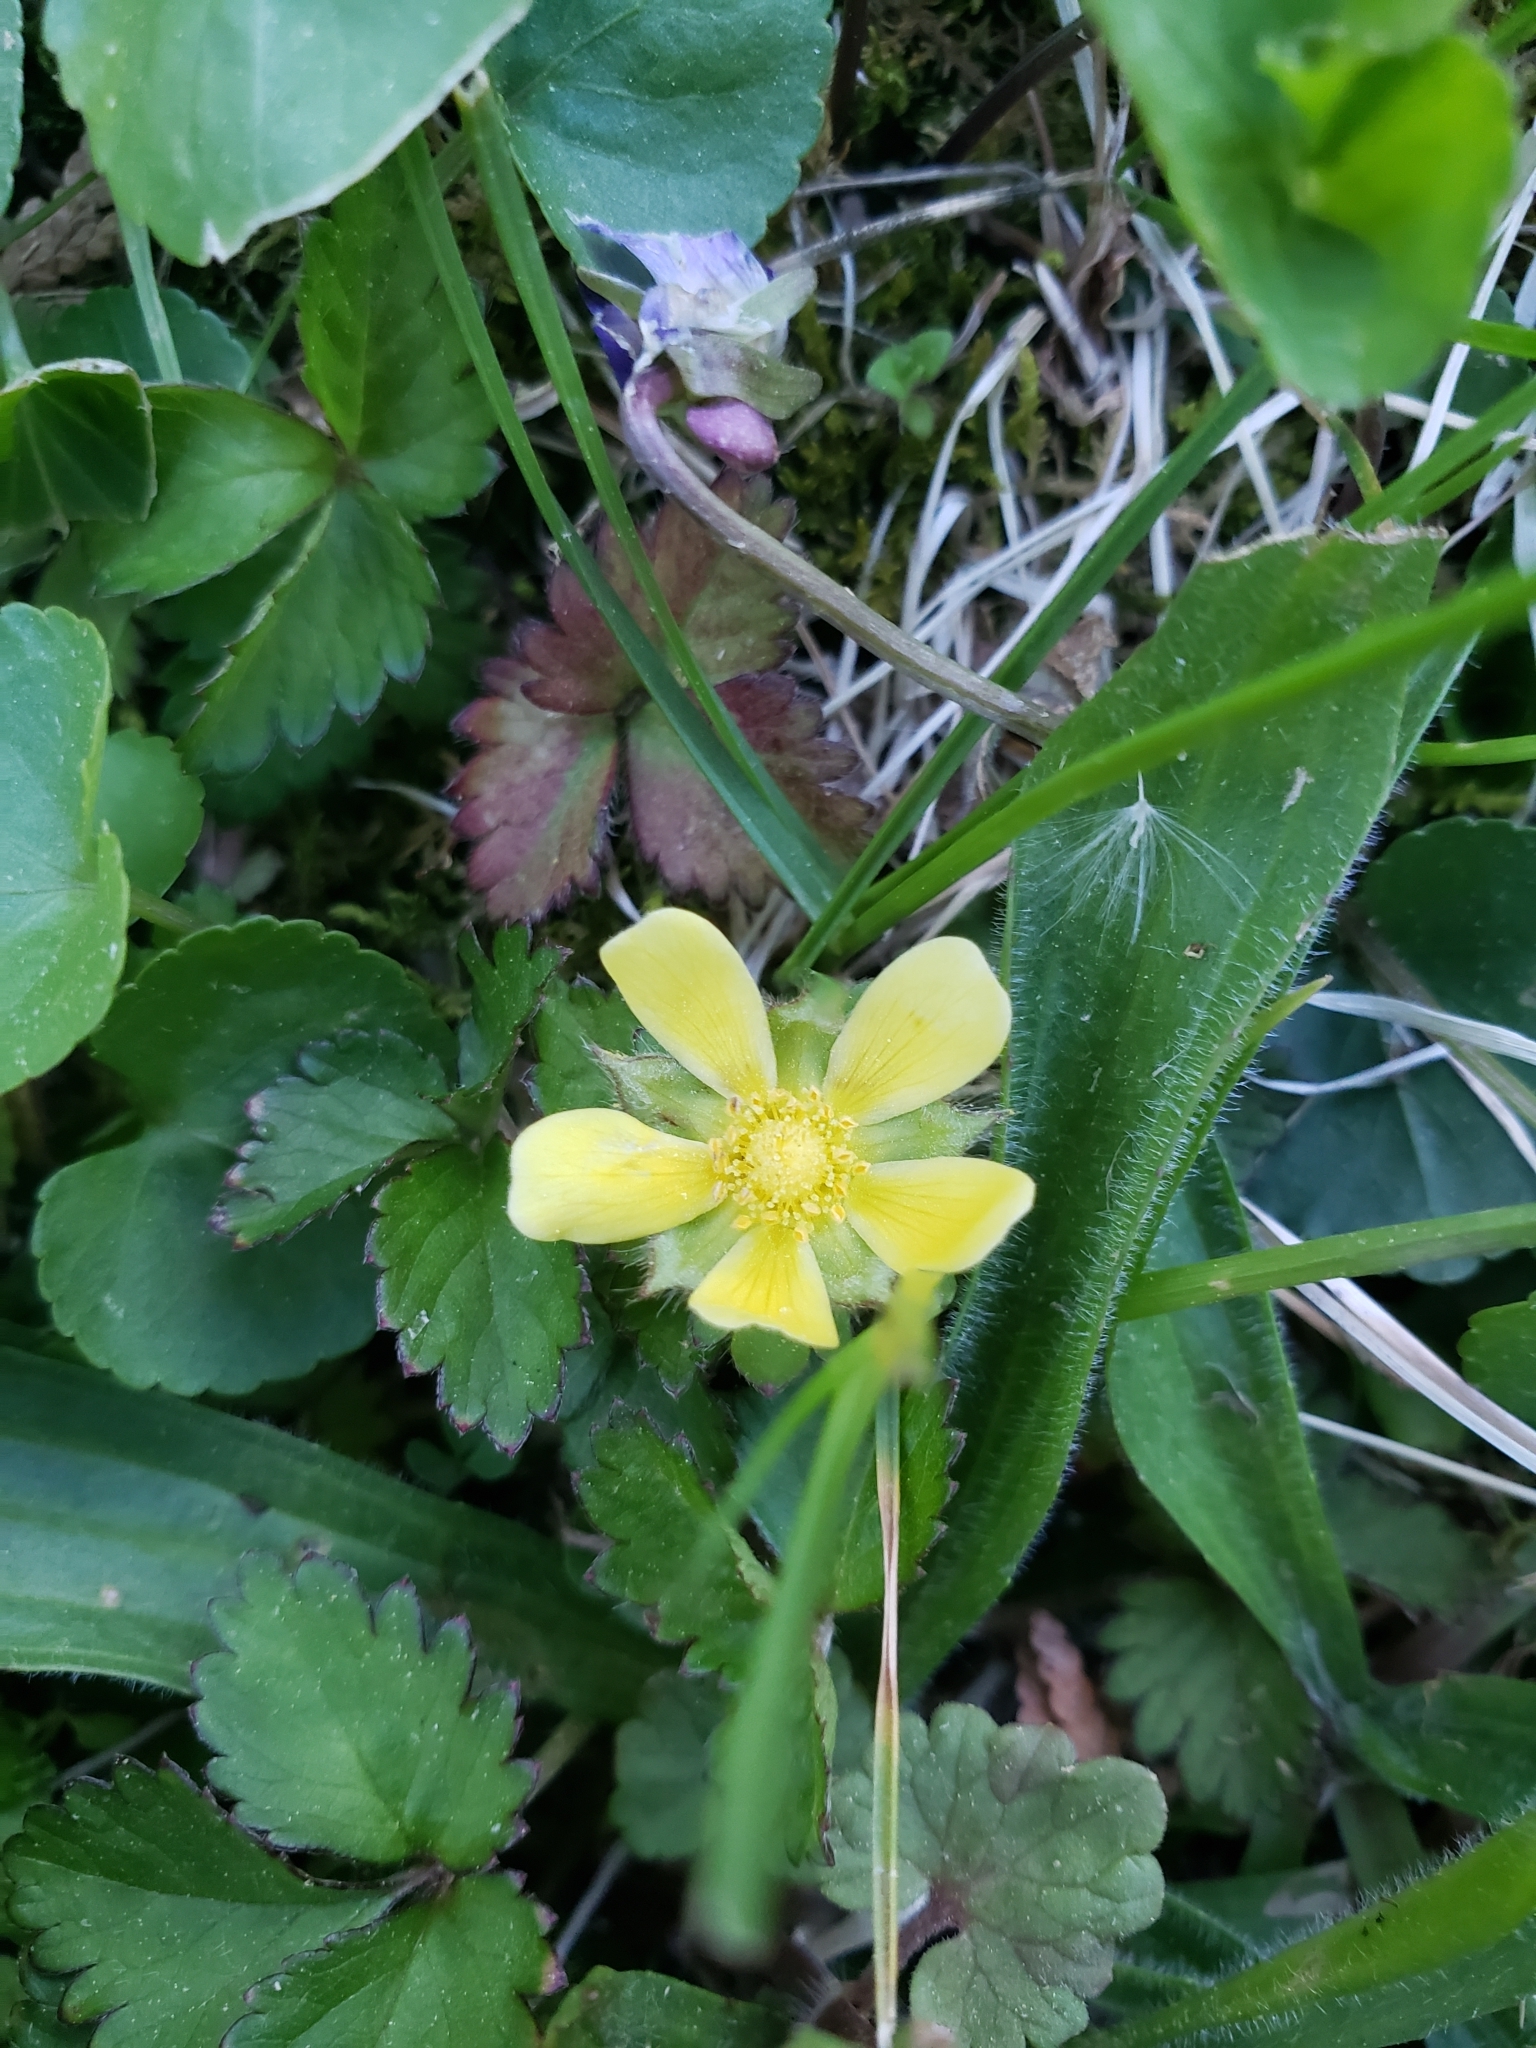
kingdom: Plantae
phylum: Tracheophyta
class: Magnoliopsida
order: Rosales
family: Rosaceae
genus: Potentilla
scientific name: Potentilla indica
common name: Yellow-flowered strawberry
